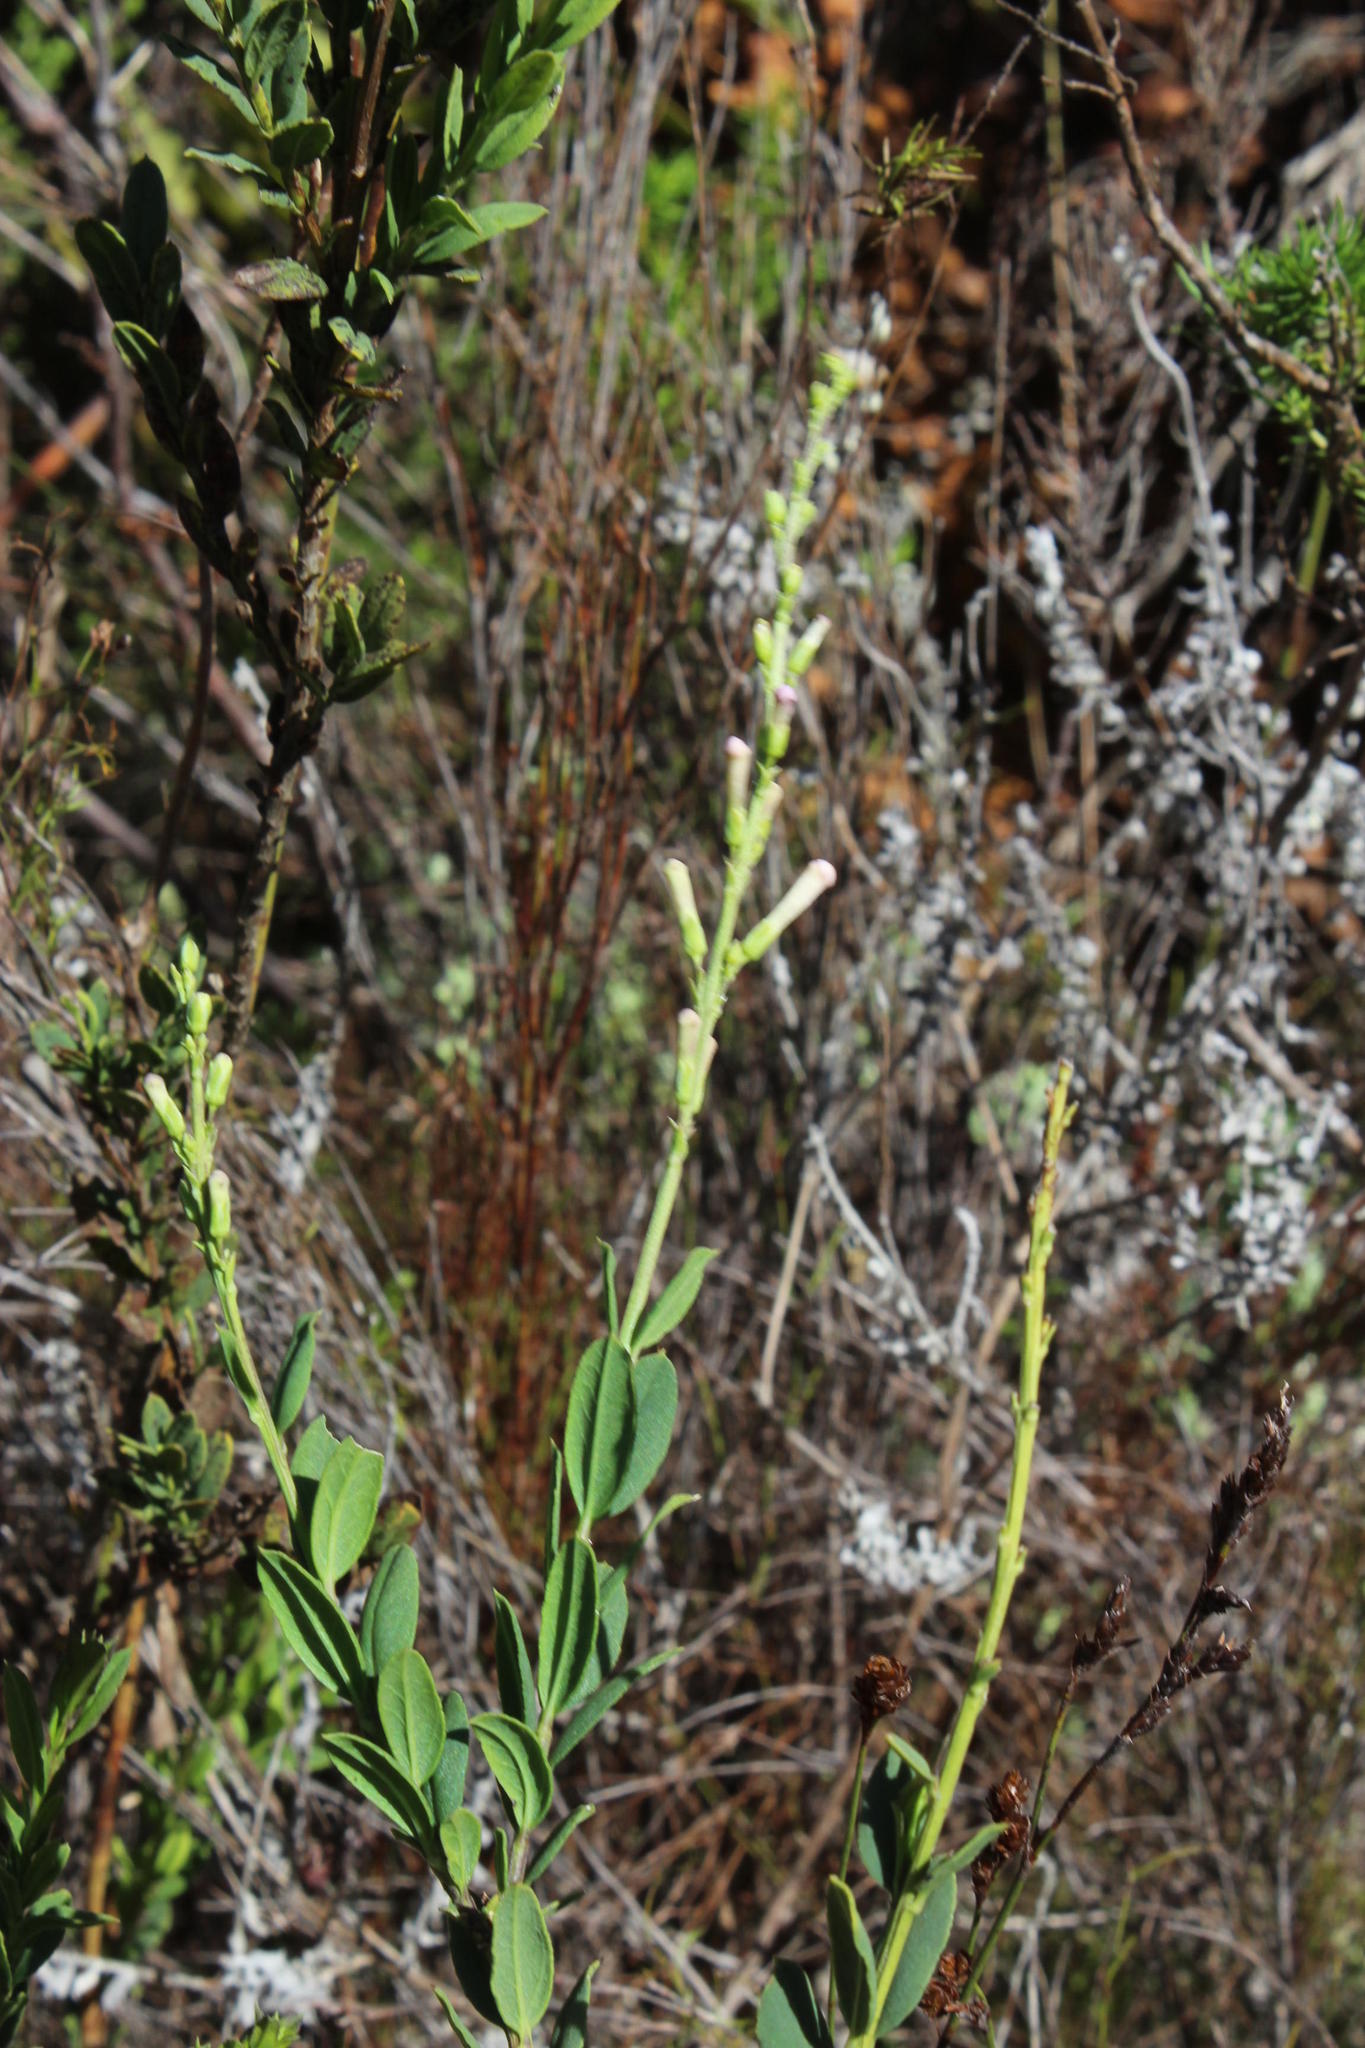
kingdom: Plantae
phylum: Tracheophyta
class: Magnoliopsida
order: Lamiales
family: Scrophulariaceae
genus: Freylinia
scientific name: Freylinia longiflora
